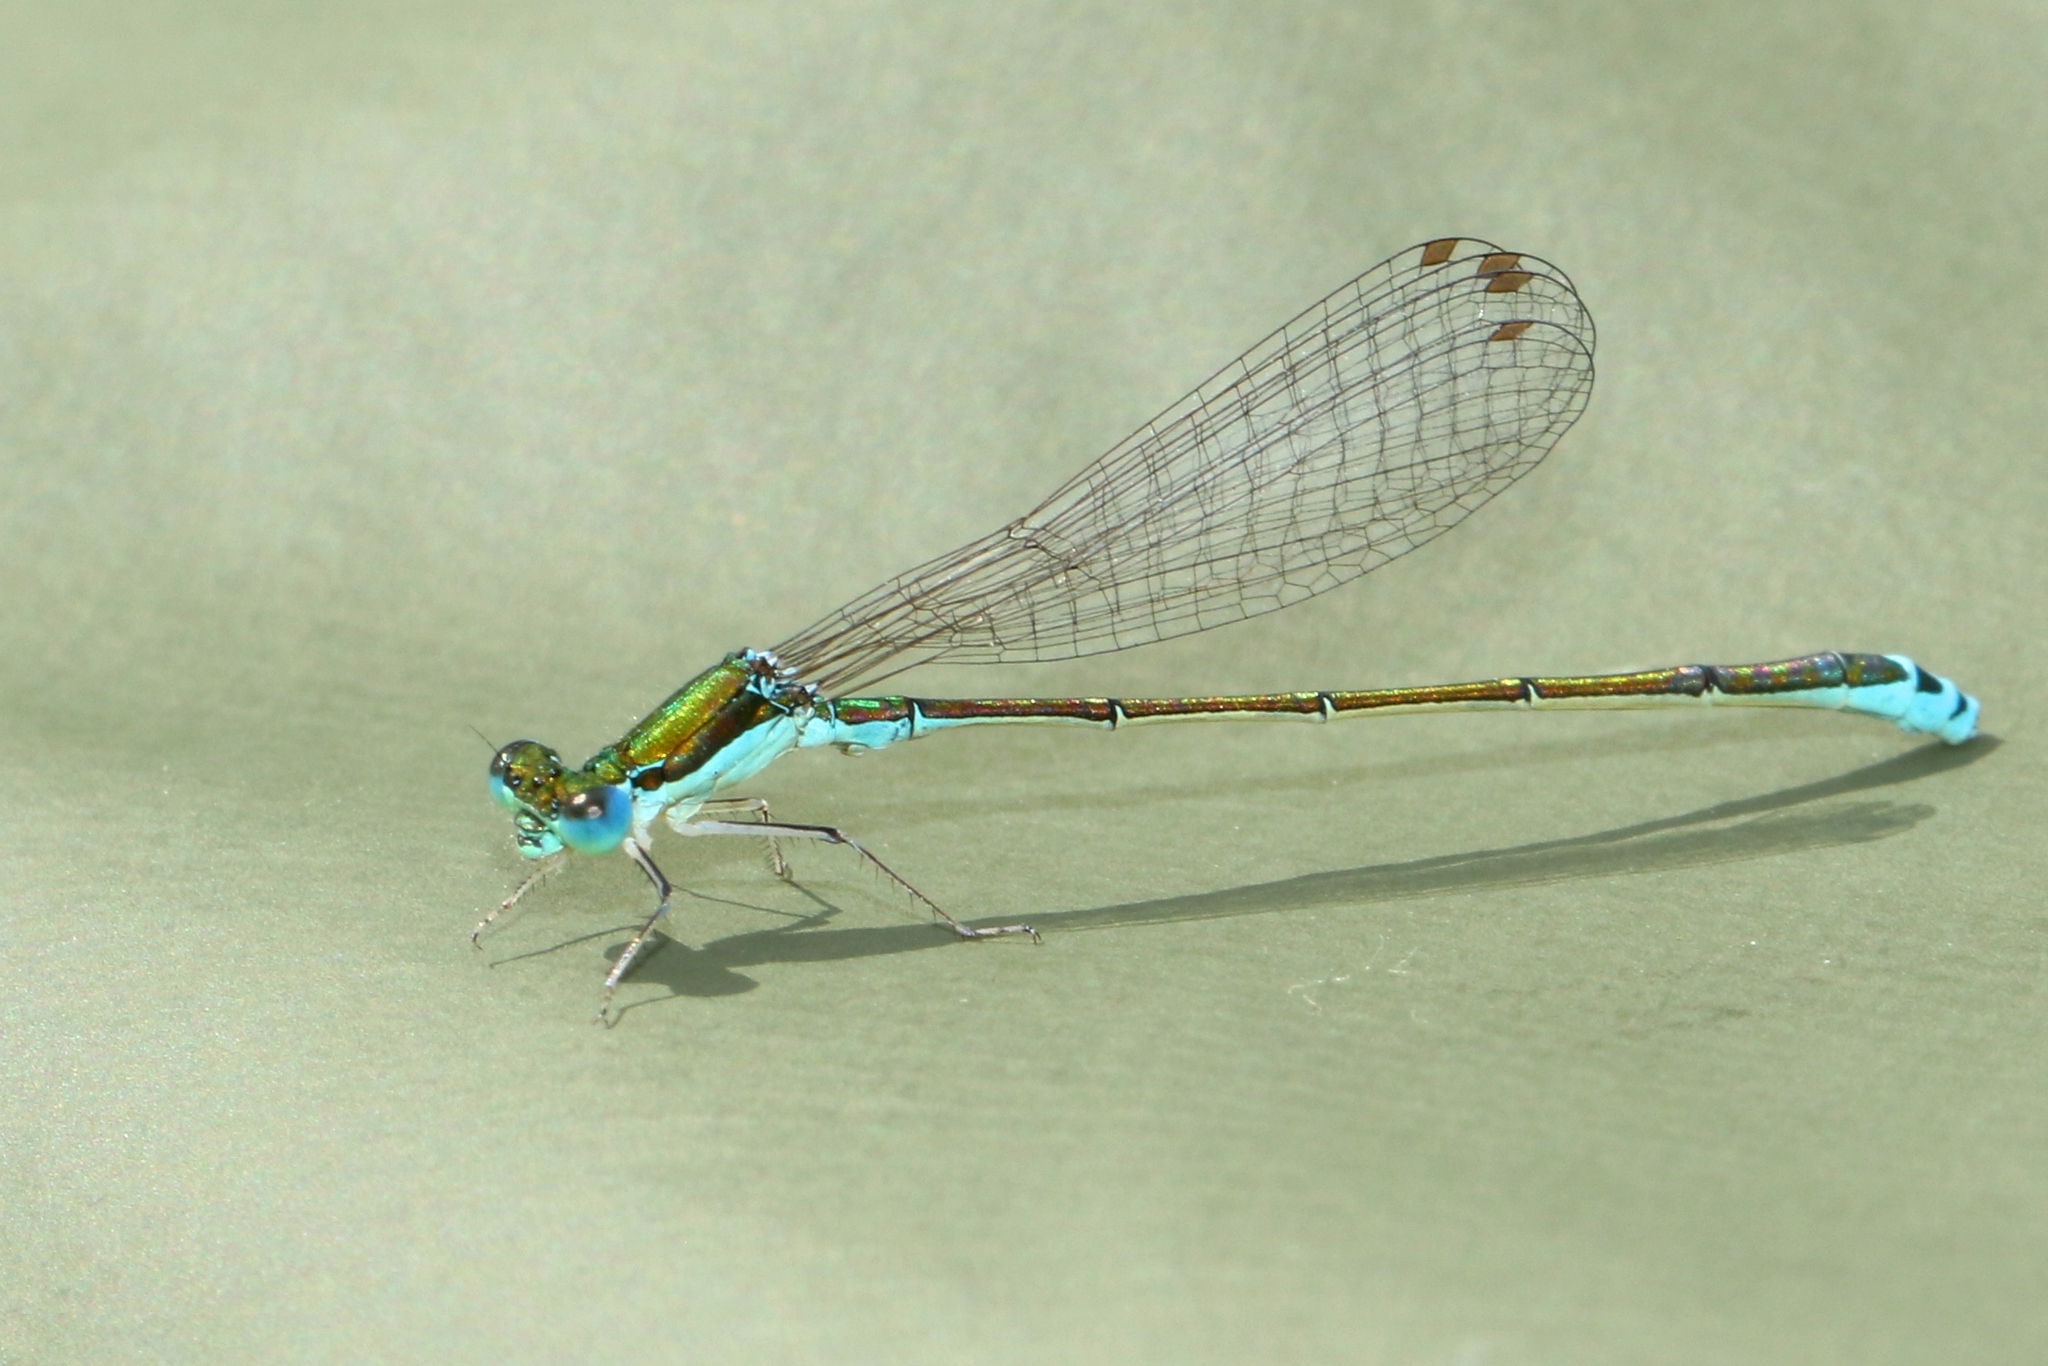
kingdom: Animalia
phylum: Arthropoda
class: Insecta
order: Odonata
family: Coenagrionidae
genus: Nehalennia
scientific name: Nehalennia irene
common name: Sedge sprite
